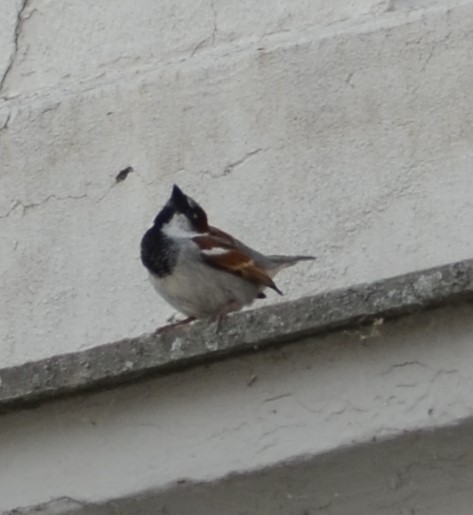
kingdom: Animalia
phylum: Chordata
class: Aves
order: Passeriformes
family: Passeridae
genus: Passer
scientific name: Passer domesticus
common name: House sparrow
